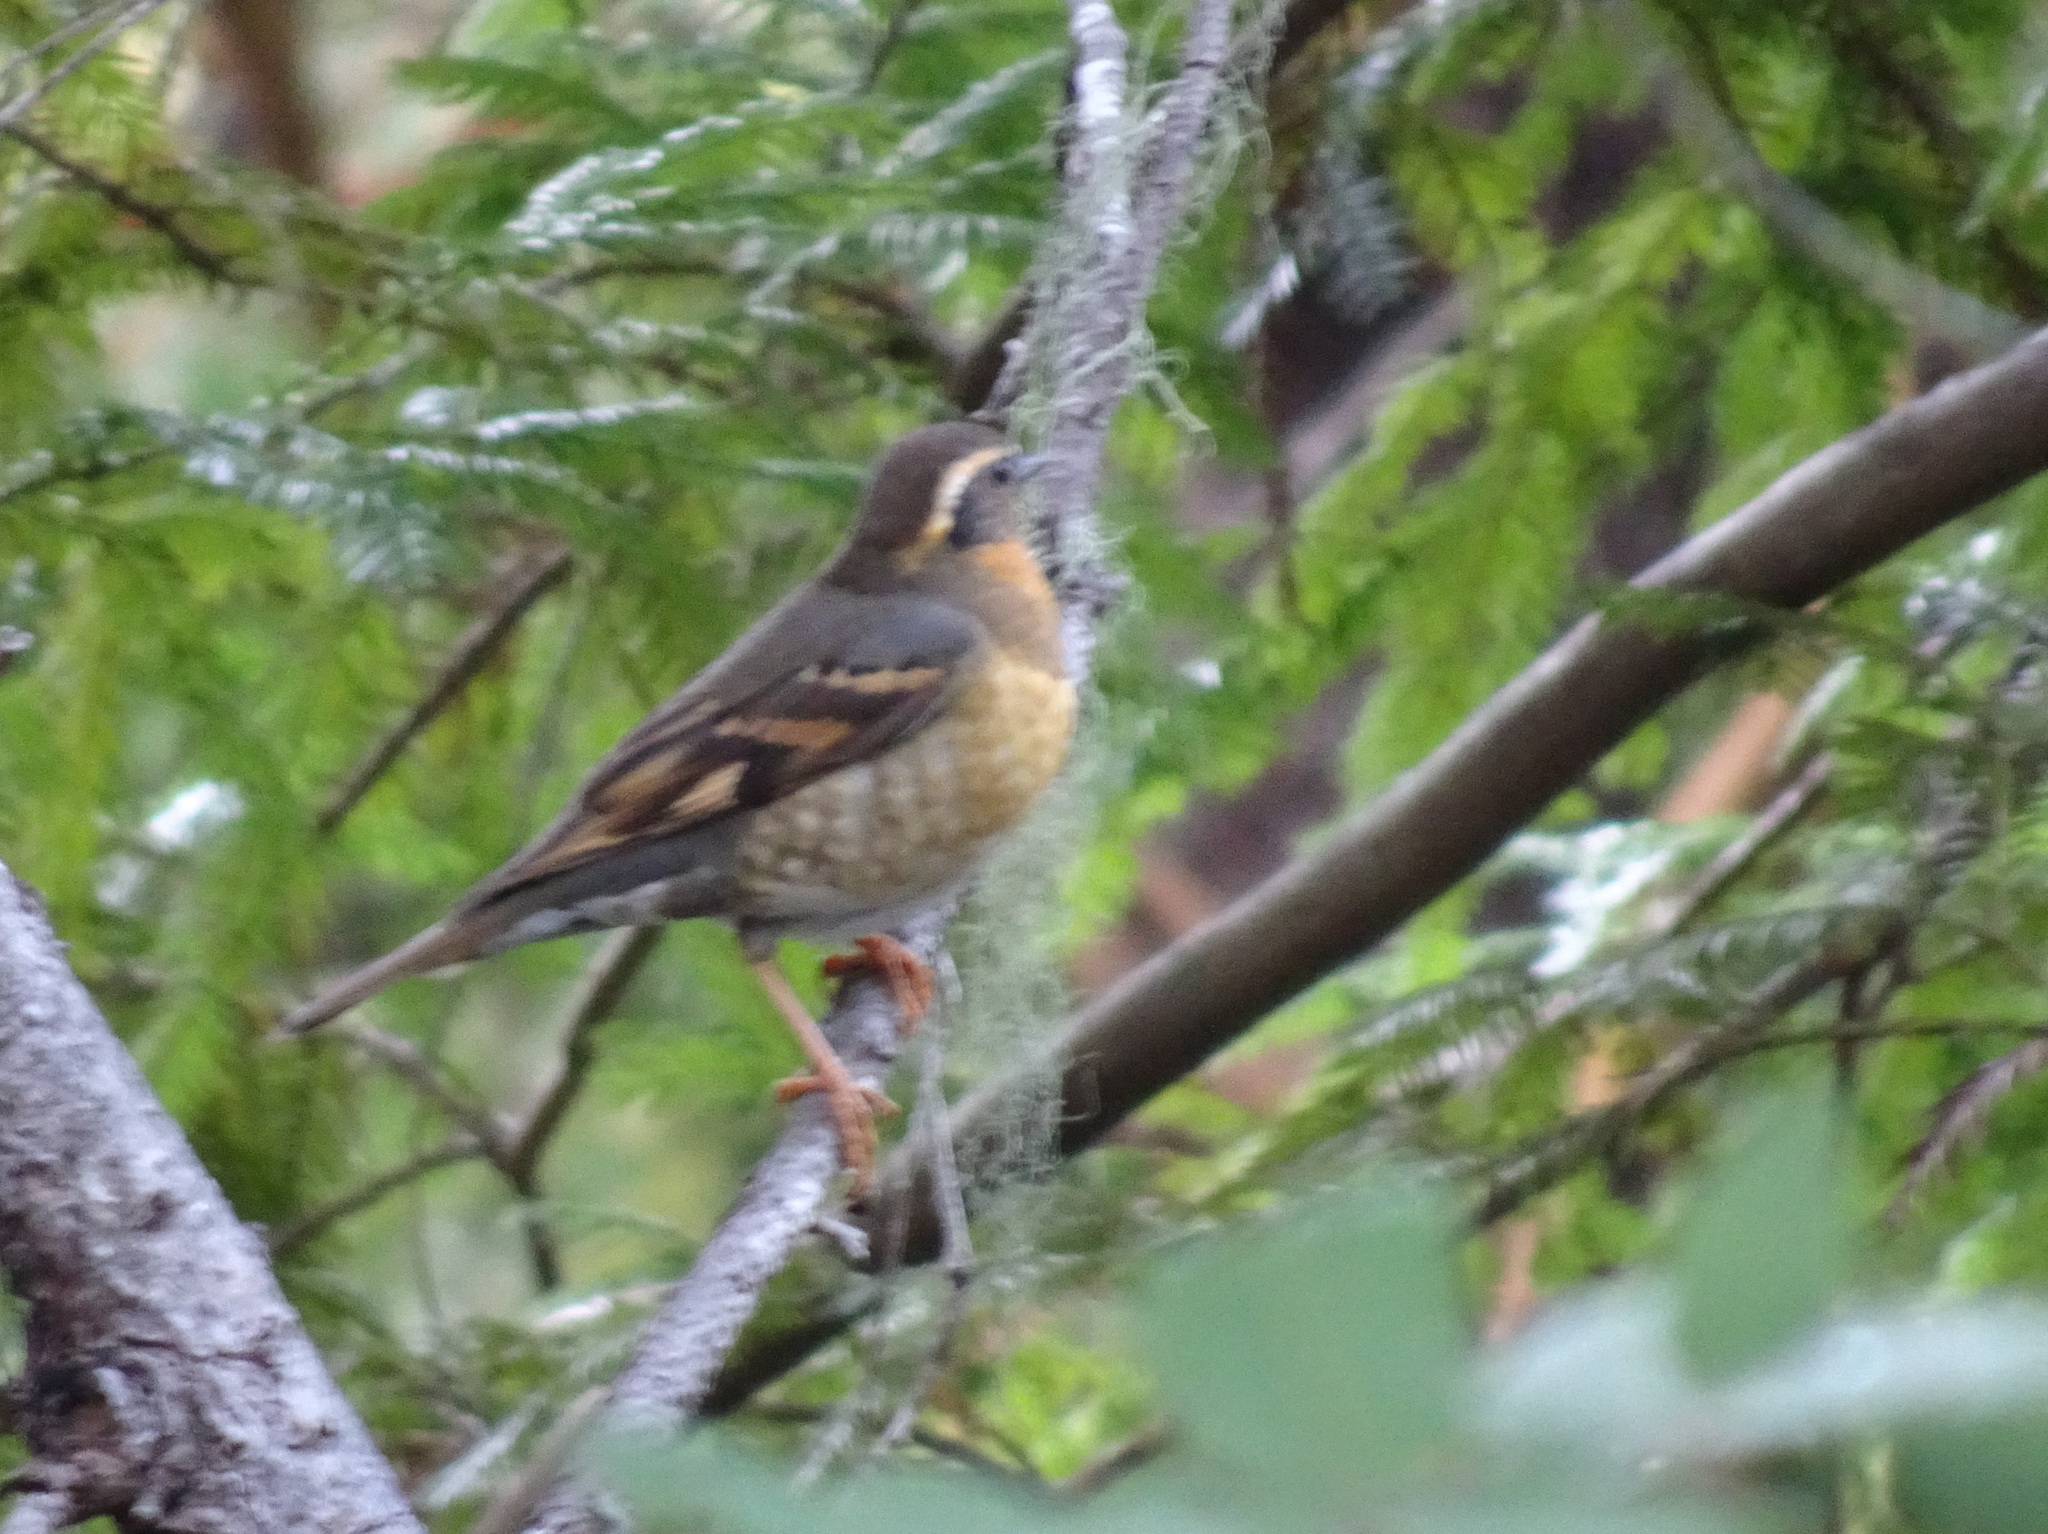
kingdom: Animalia
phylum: Chordata
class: Aves
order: Passeriformes
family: Turdidae
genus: Ixoreus
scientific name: Ixoreus naevius
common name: Varied thrush
